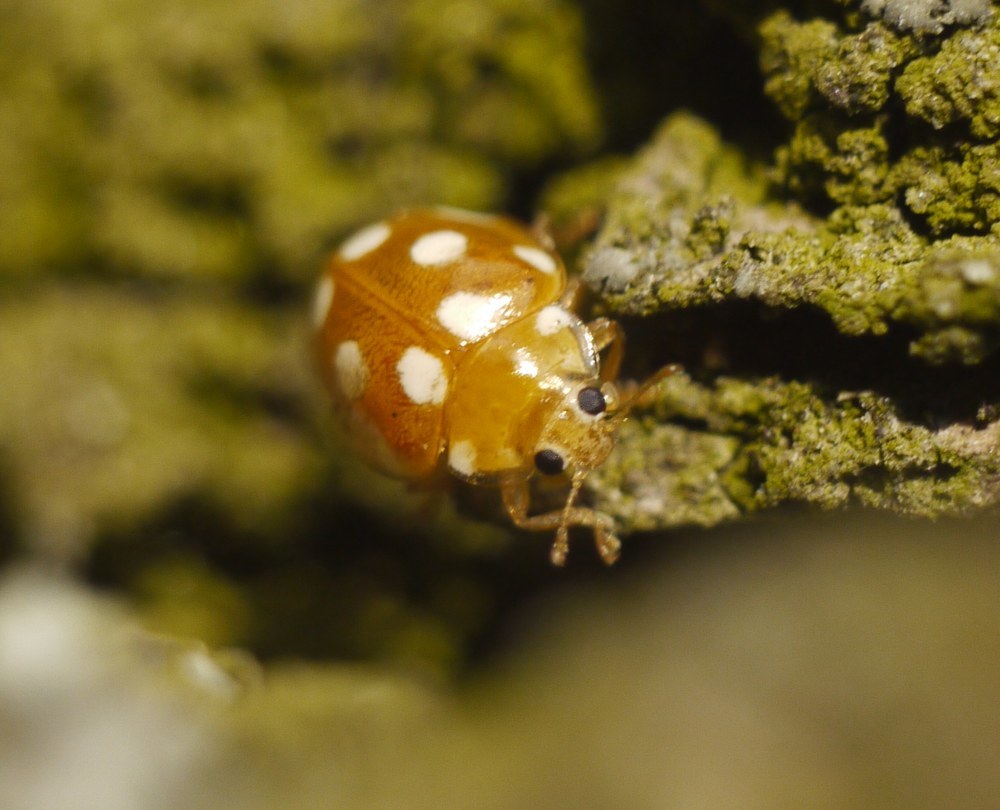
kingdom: Animalia
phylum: Arthropoda
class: Insecta
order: Coleoptera
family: Coccinellidae
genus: Vibidia
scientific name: Vibidia duodecimguttata
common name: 12-spot ladybird
